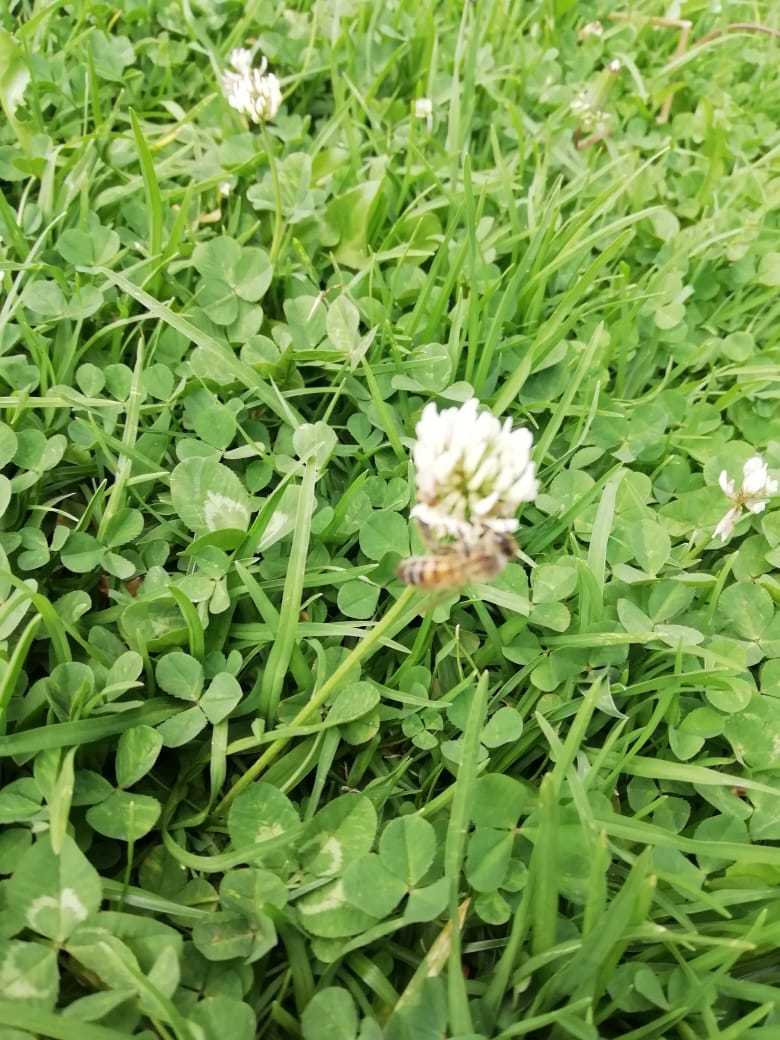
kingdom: Animalia
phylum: Arthropoda
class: Insecta
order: Hymenoptera
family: Apidae
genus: Apis
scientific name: Apis mellifera
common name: Honey bee
